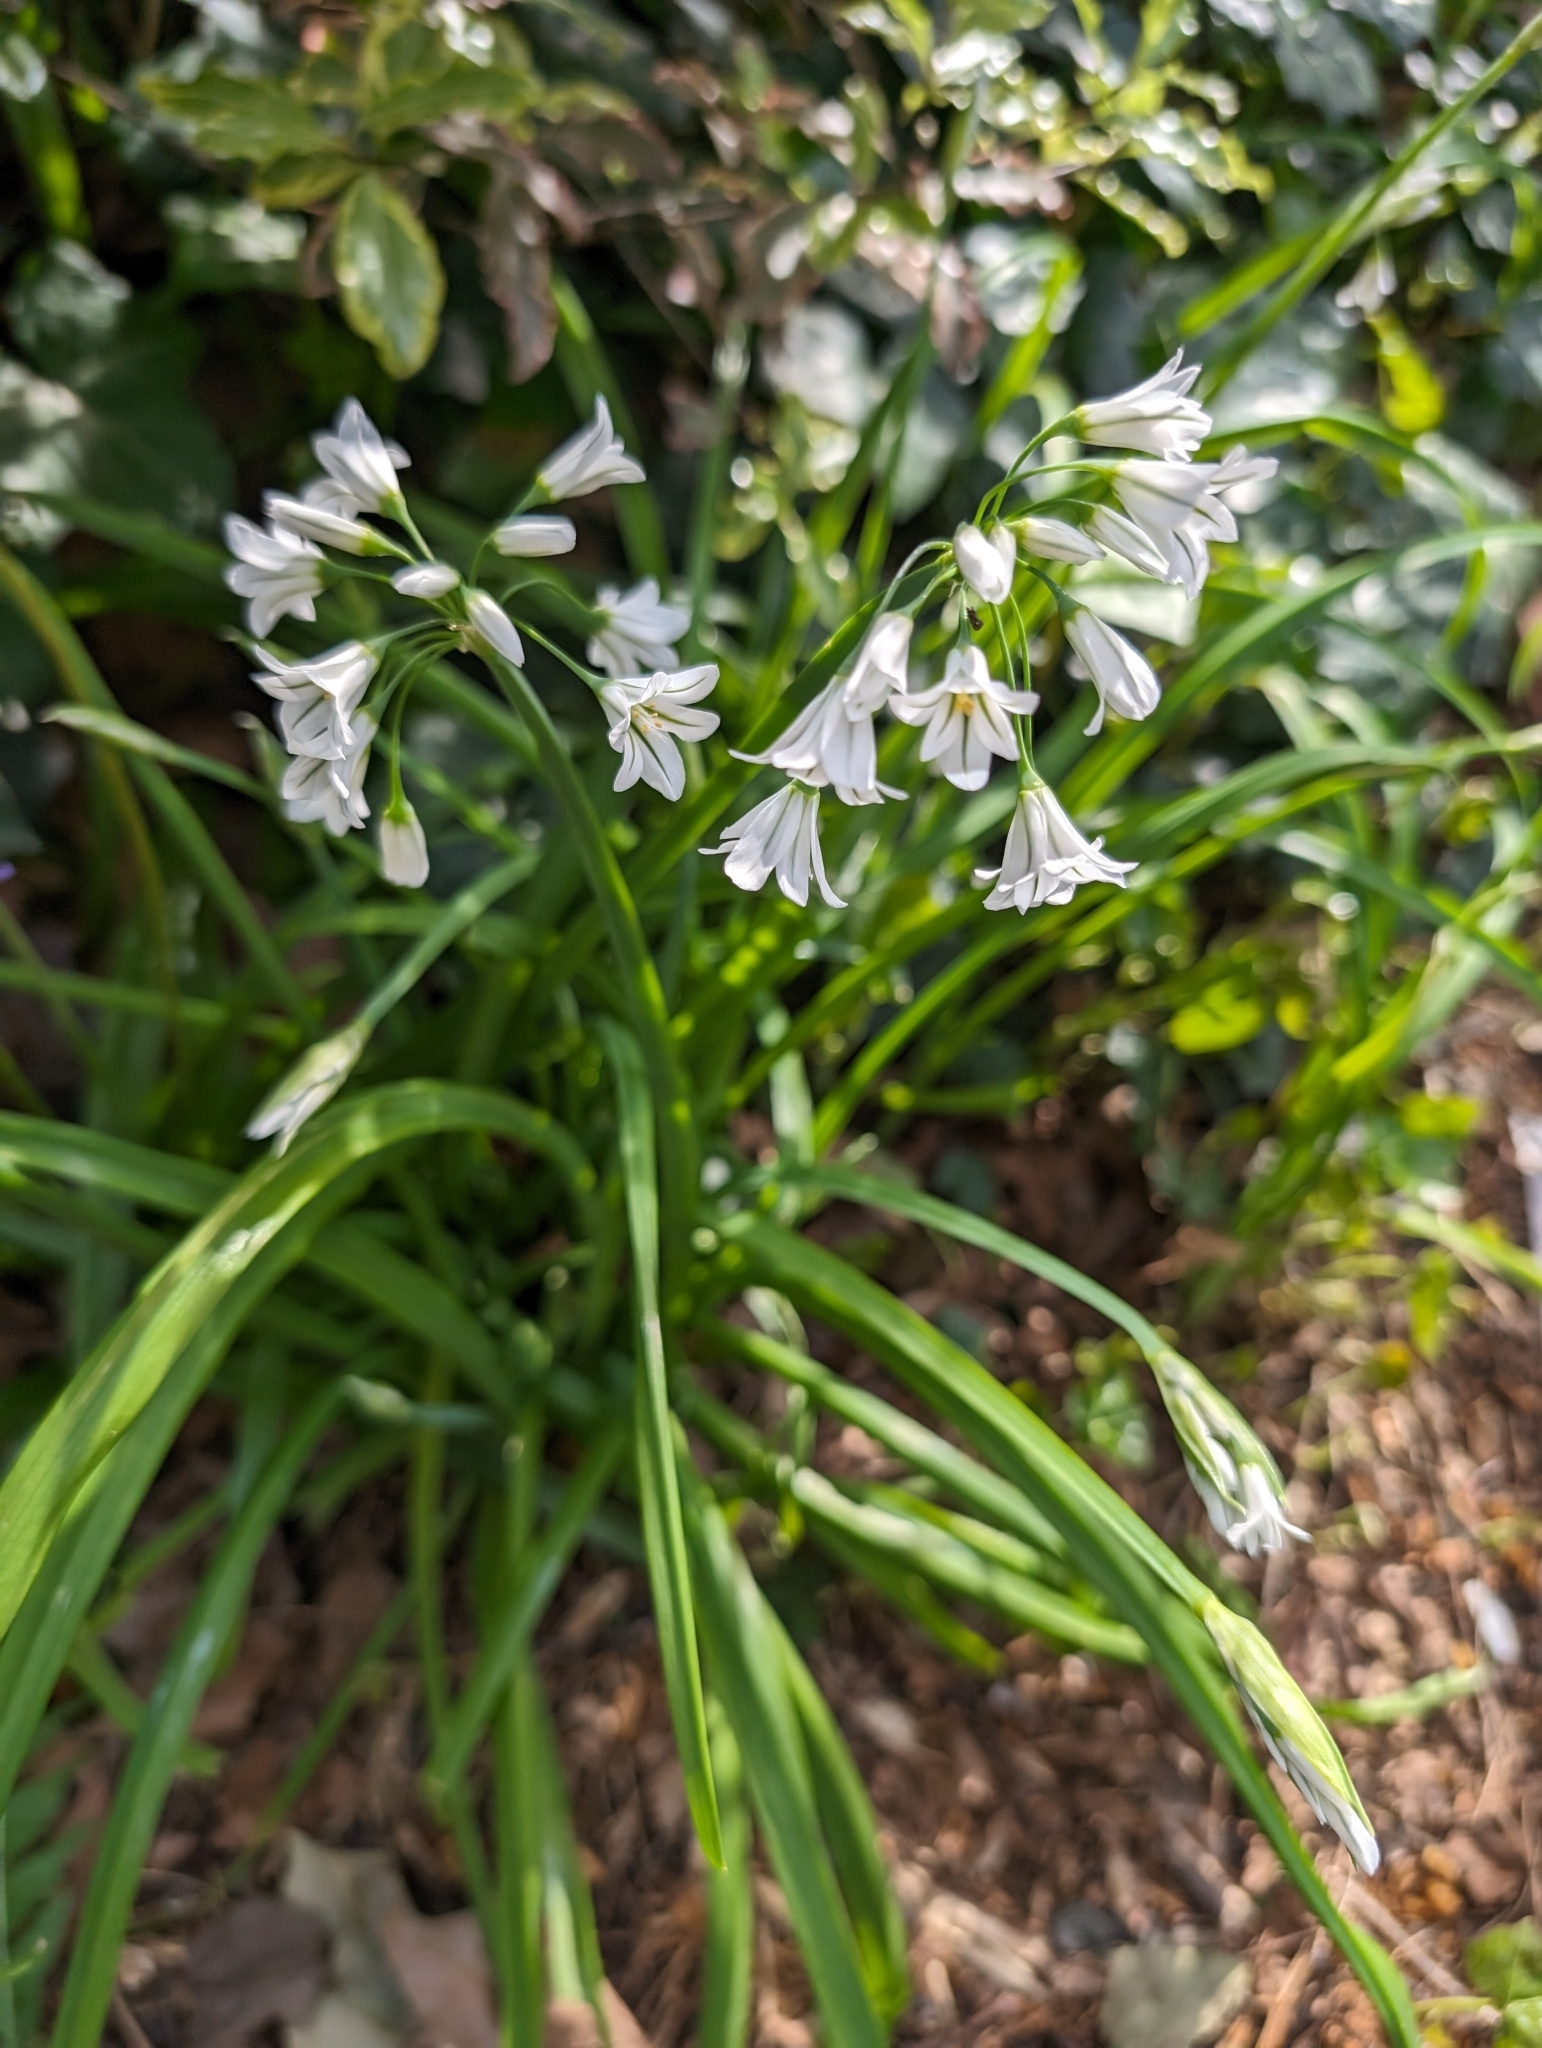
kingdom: Plantae
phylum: Tracheophyta
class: Liliopsida
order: Asparagales
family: Amaryllidaceae
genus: Allium
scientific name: Allium triquetrum
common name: Three-cornered garlic
